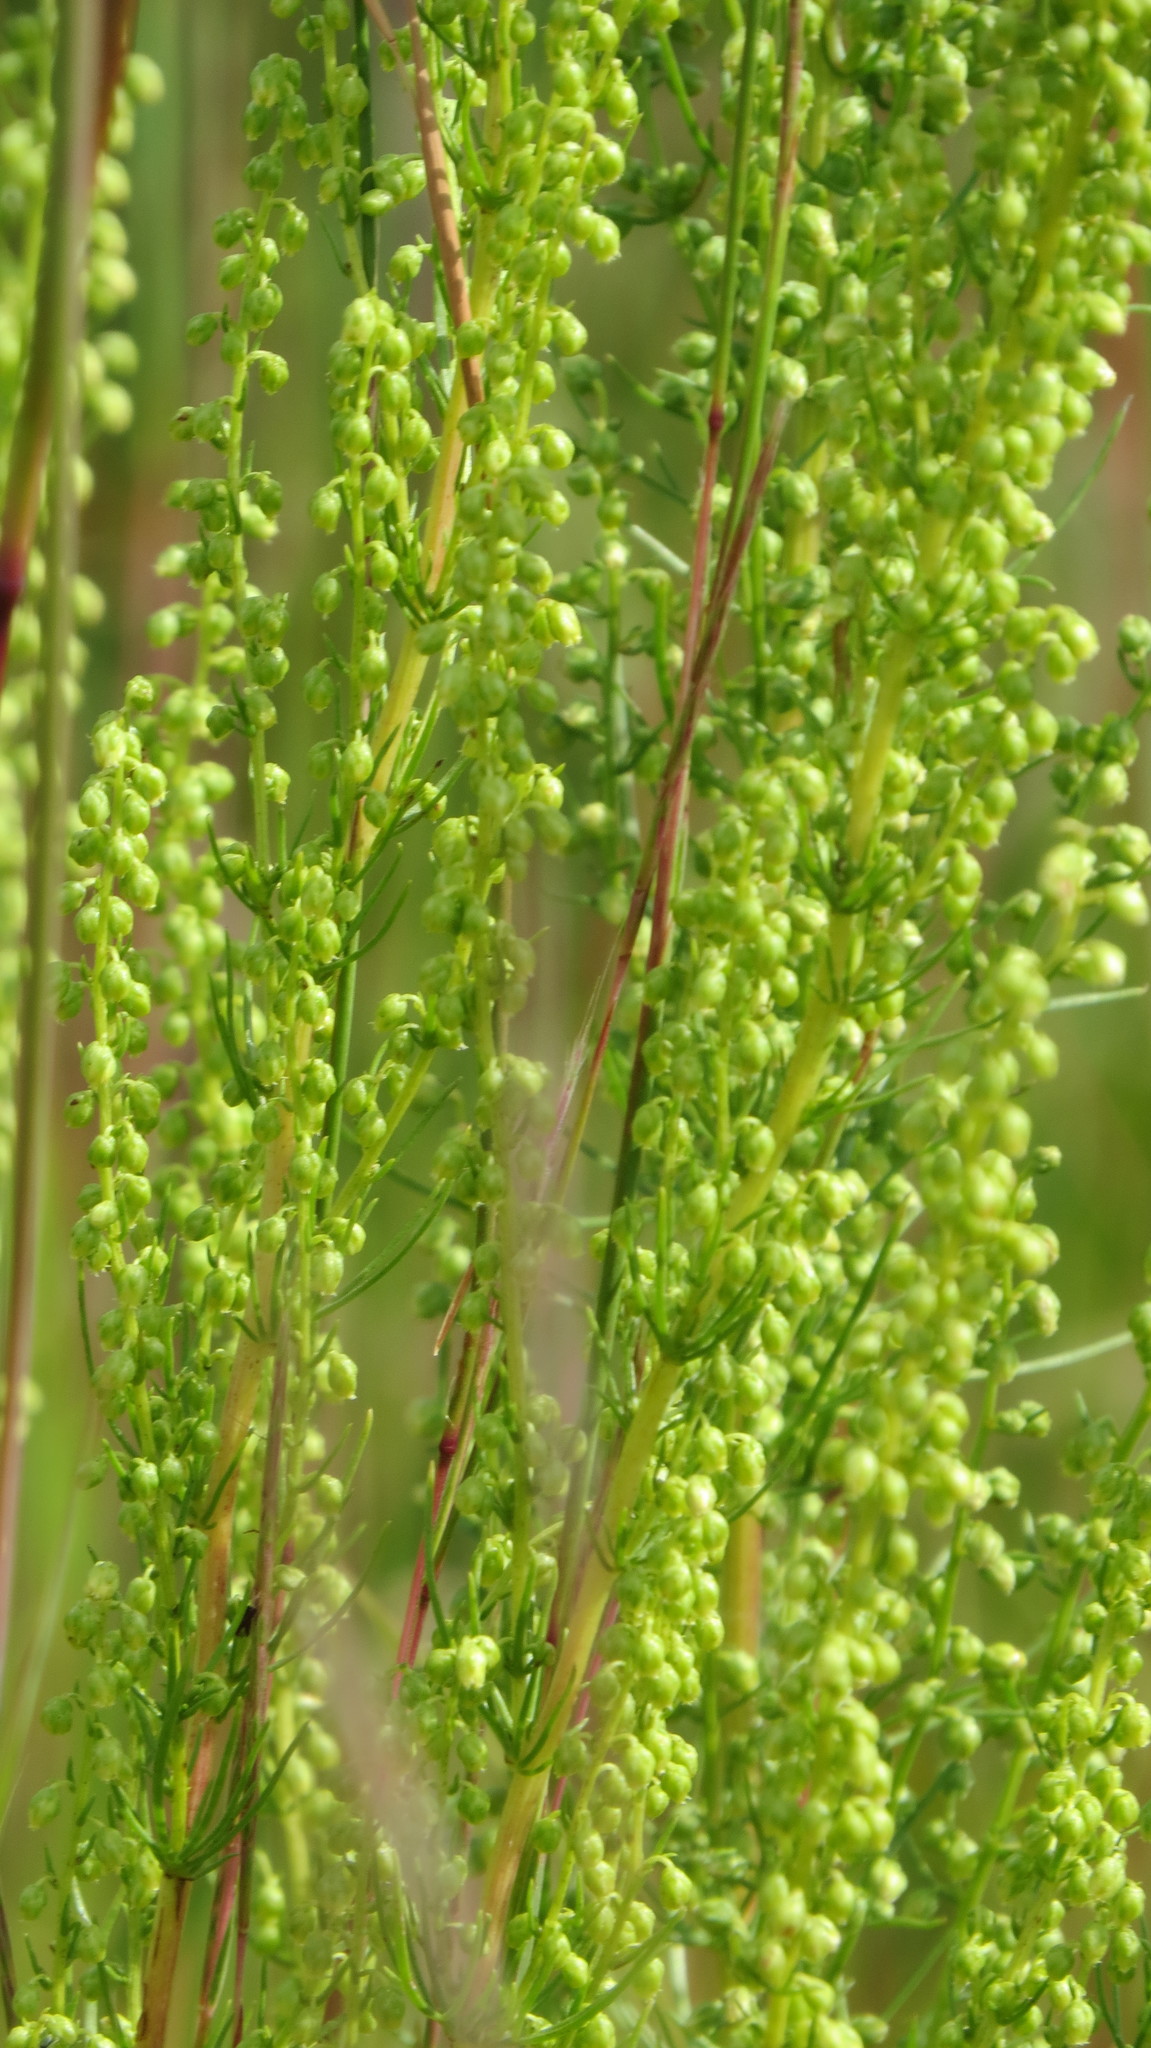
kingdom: Plantae
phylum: Tracheophyta
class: Magnoliopsida
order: Asterales
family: Asteraceae
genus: Artemisia
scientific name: Artemisia campestris
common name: Field wormwood
